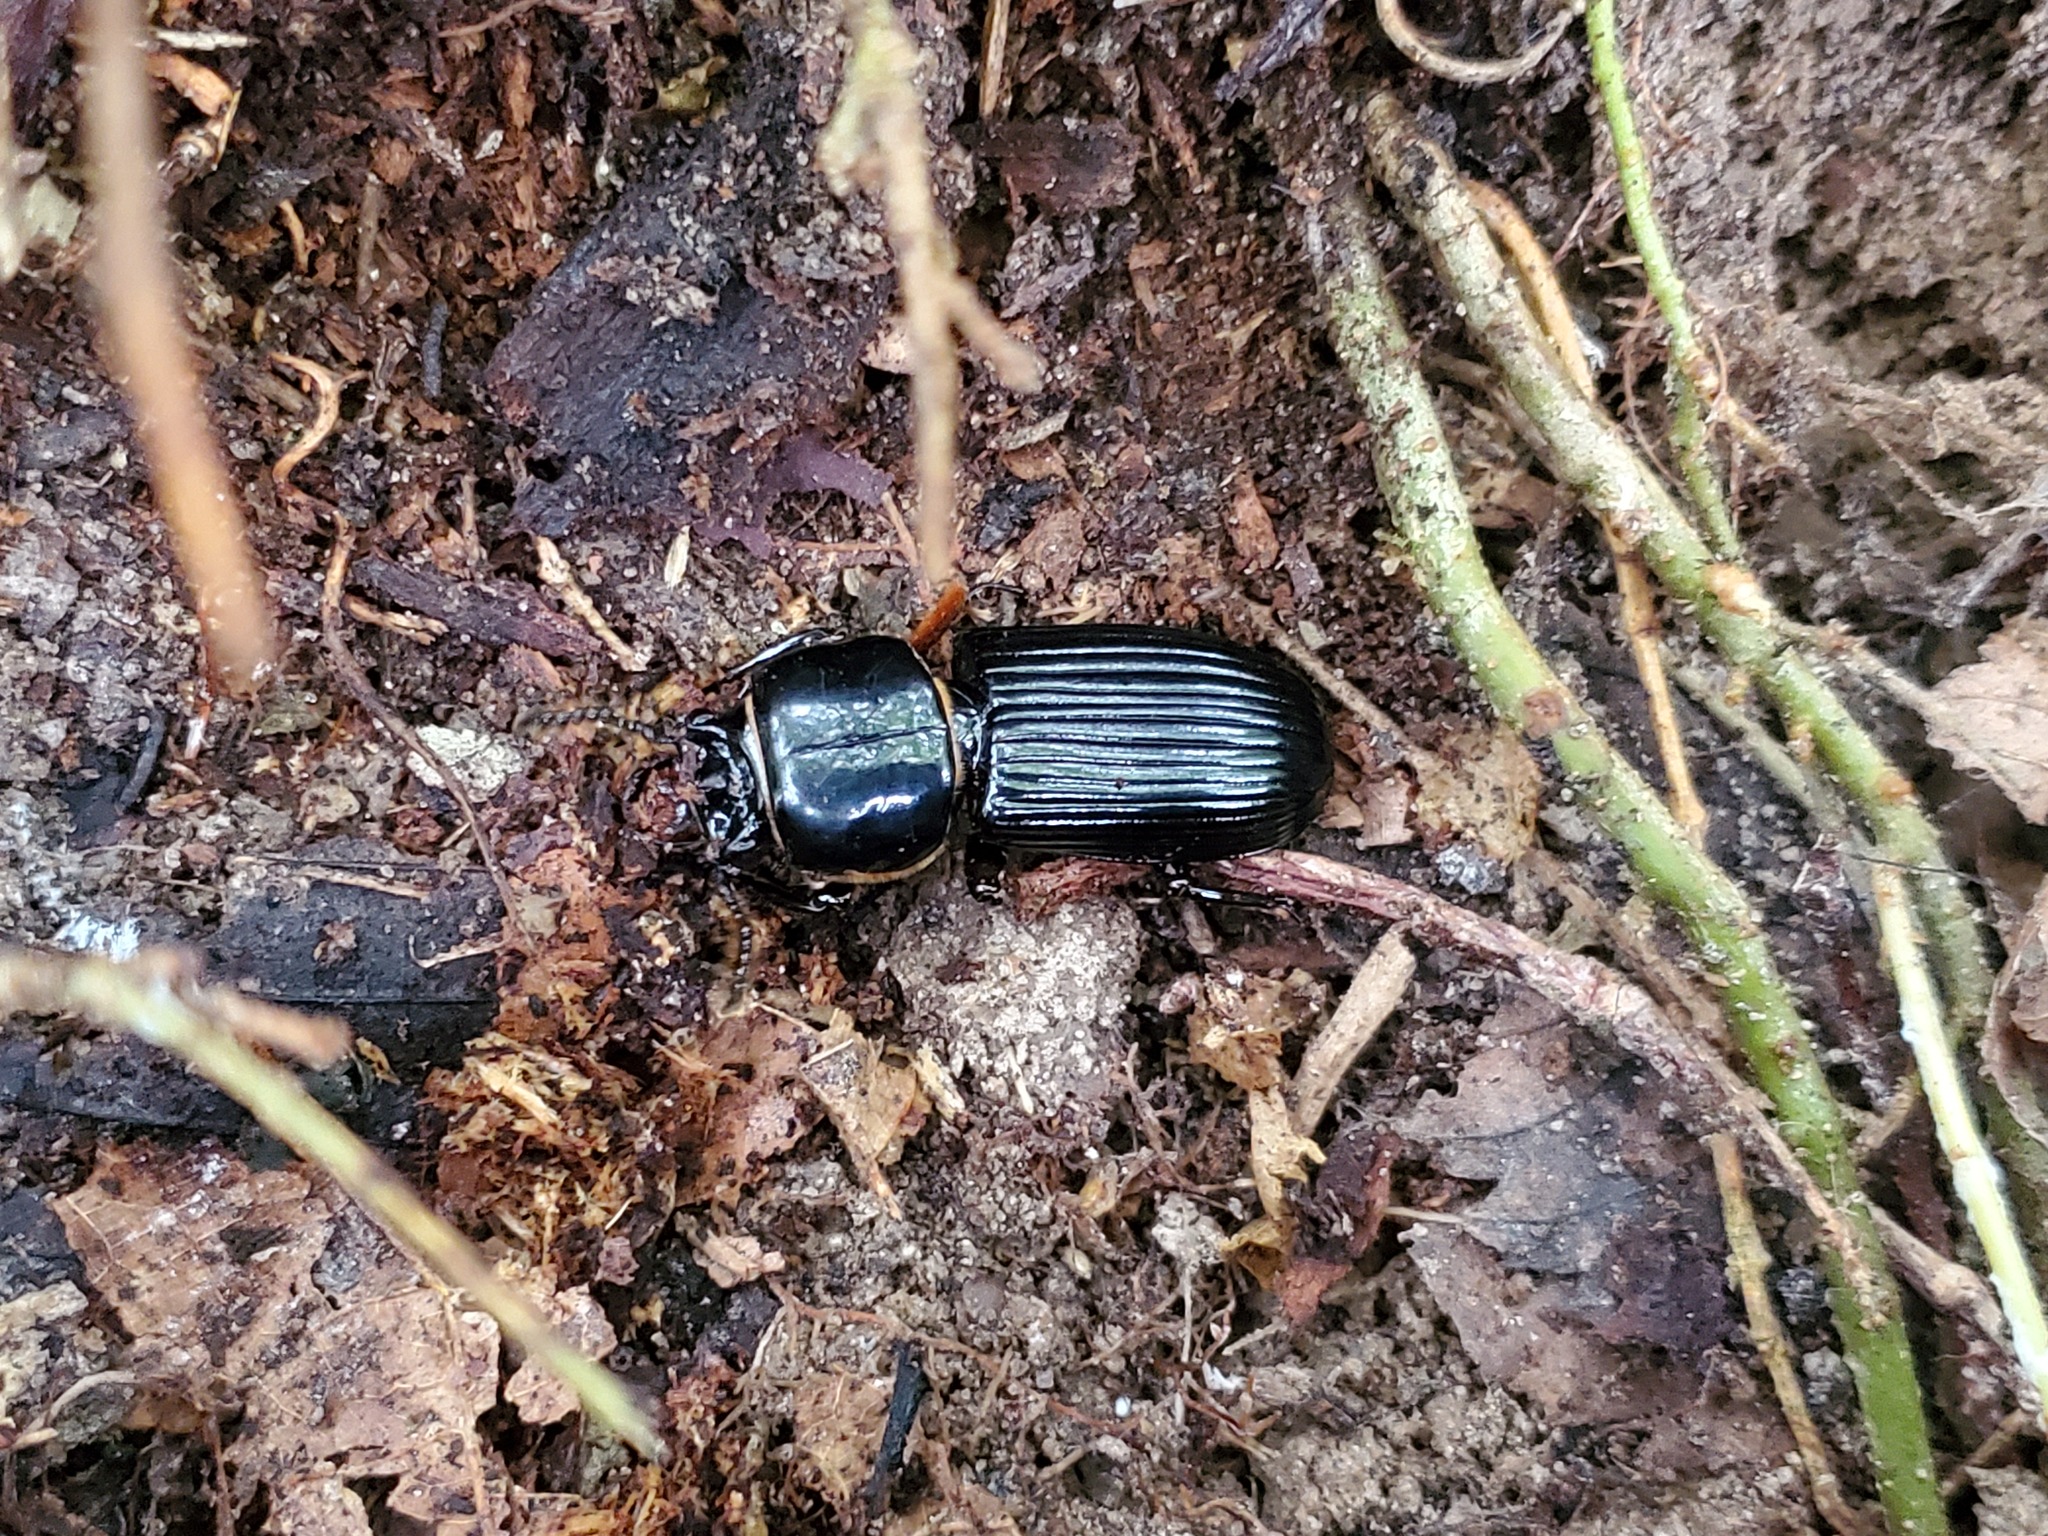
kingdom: Animalia
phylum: Arthropoda
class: Insecta
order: Coleoptera
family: Passalidae
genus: Odontotaenius
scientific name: Odontotaenius disjunctus
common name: Patent leather beetle
